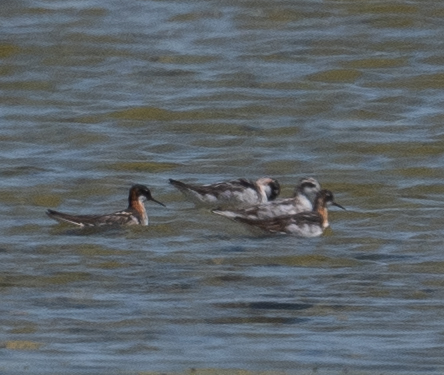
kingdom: Animalia
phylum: Chordata
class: Aves
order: Charadriiformes
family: Scolopacidae
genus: Phalaropus
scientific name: Phalaropus lobatus
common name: Red-necked phalarope
